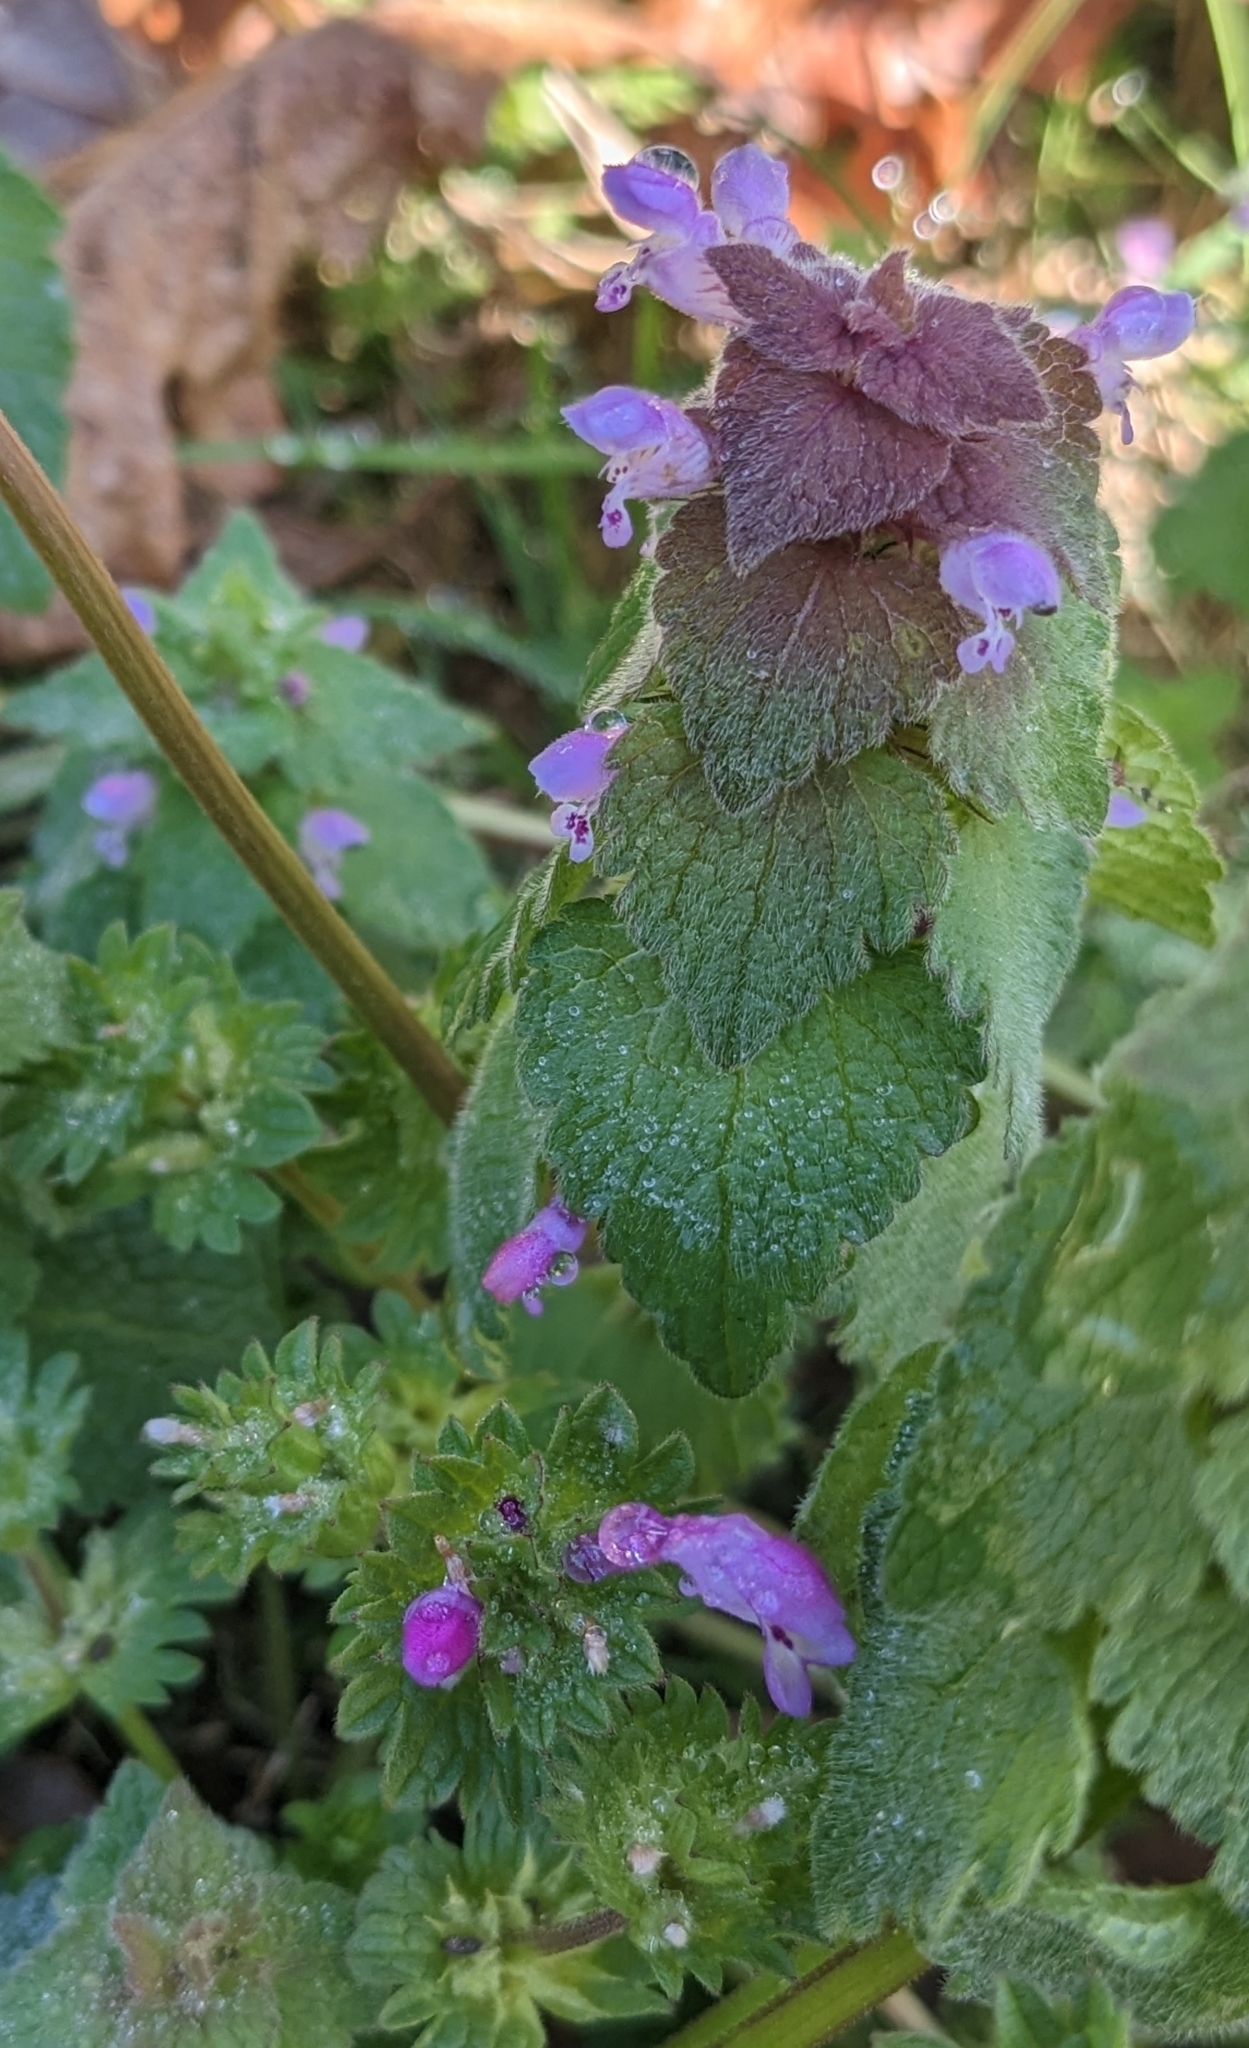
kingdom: Plantae
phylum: Tracheophyta
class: Magnoliopsida
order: Lamiales
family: Lamiaceae
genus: Lamium
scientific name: Lamium purpureum
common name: Red dead-nettle
